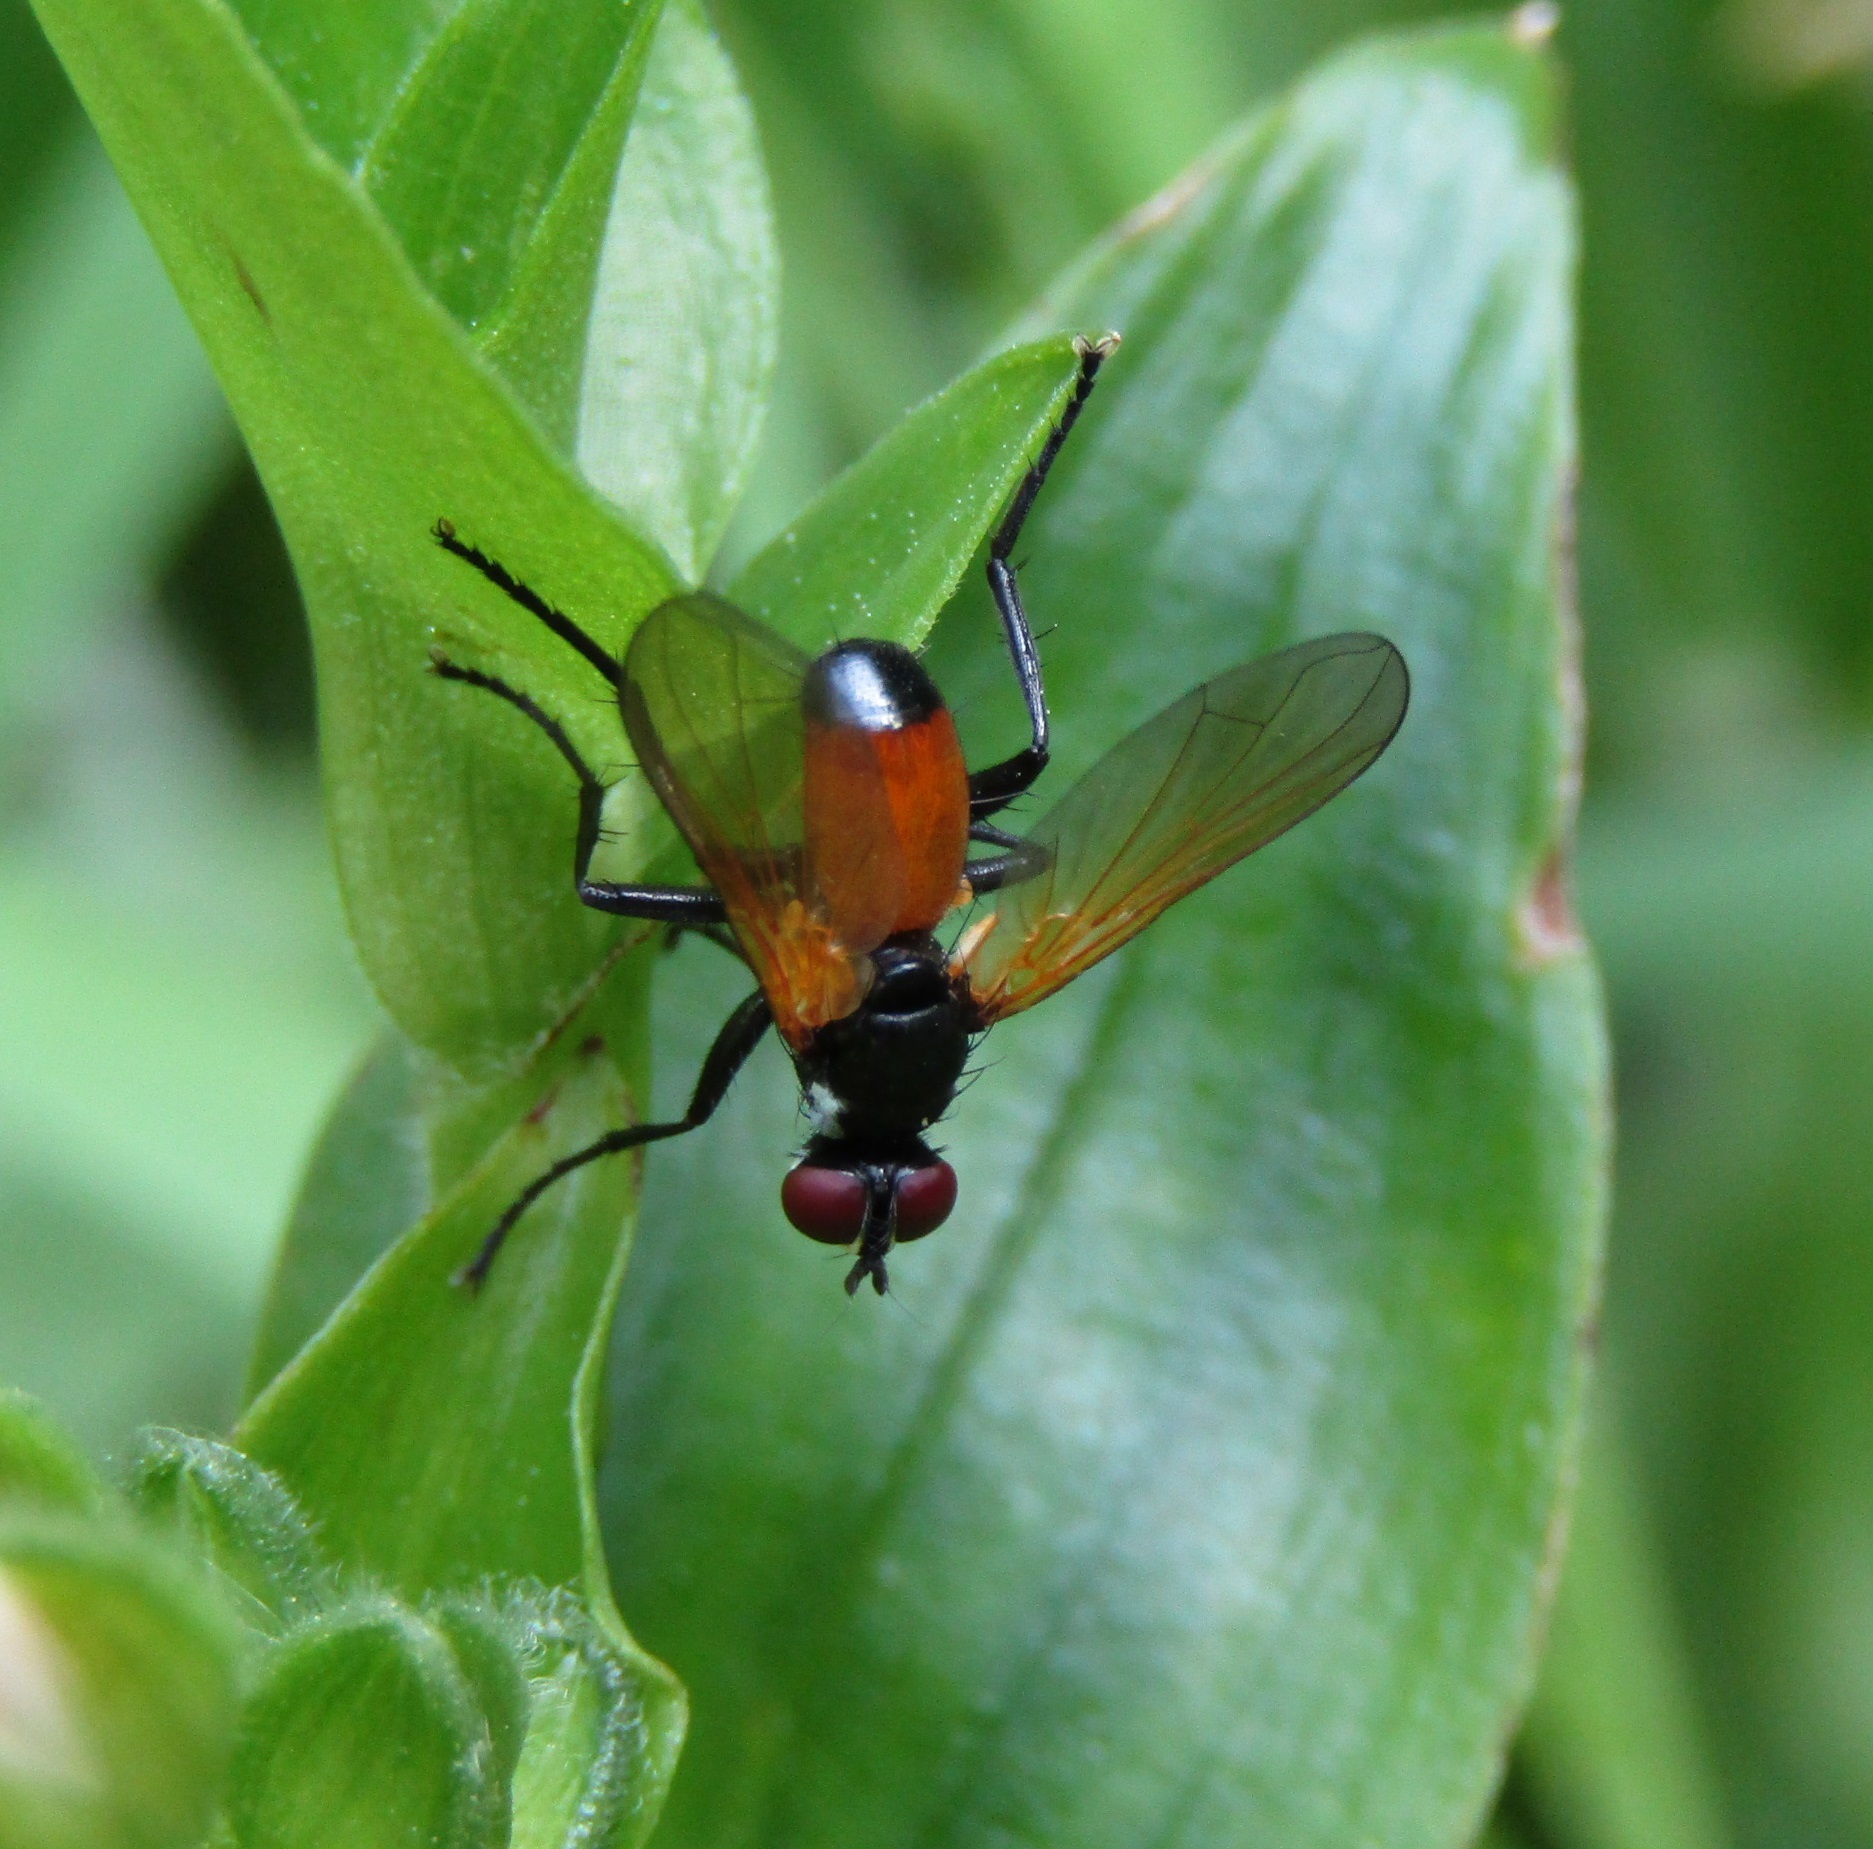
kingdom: Animalia
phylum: Arthropoda
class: Insecta
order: Diptera
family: Tachinidae
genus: Huttonobesseria
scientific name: Huttonobesseria verecunda
